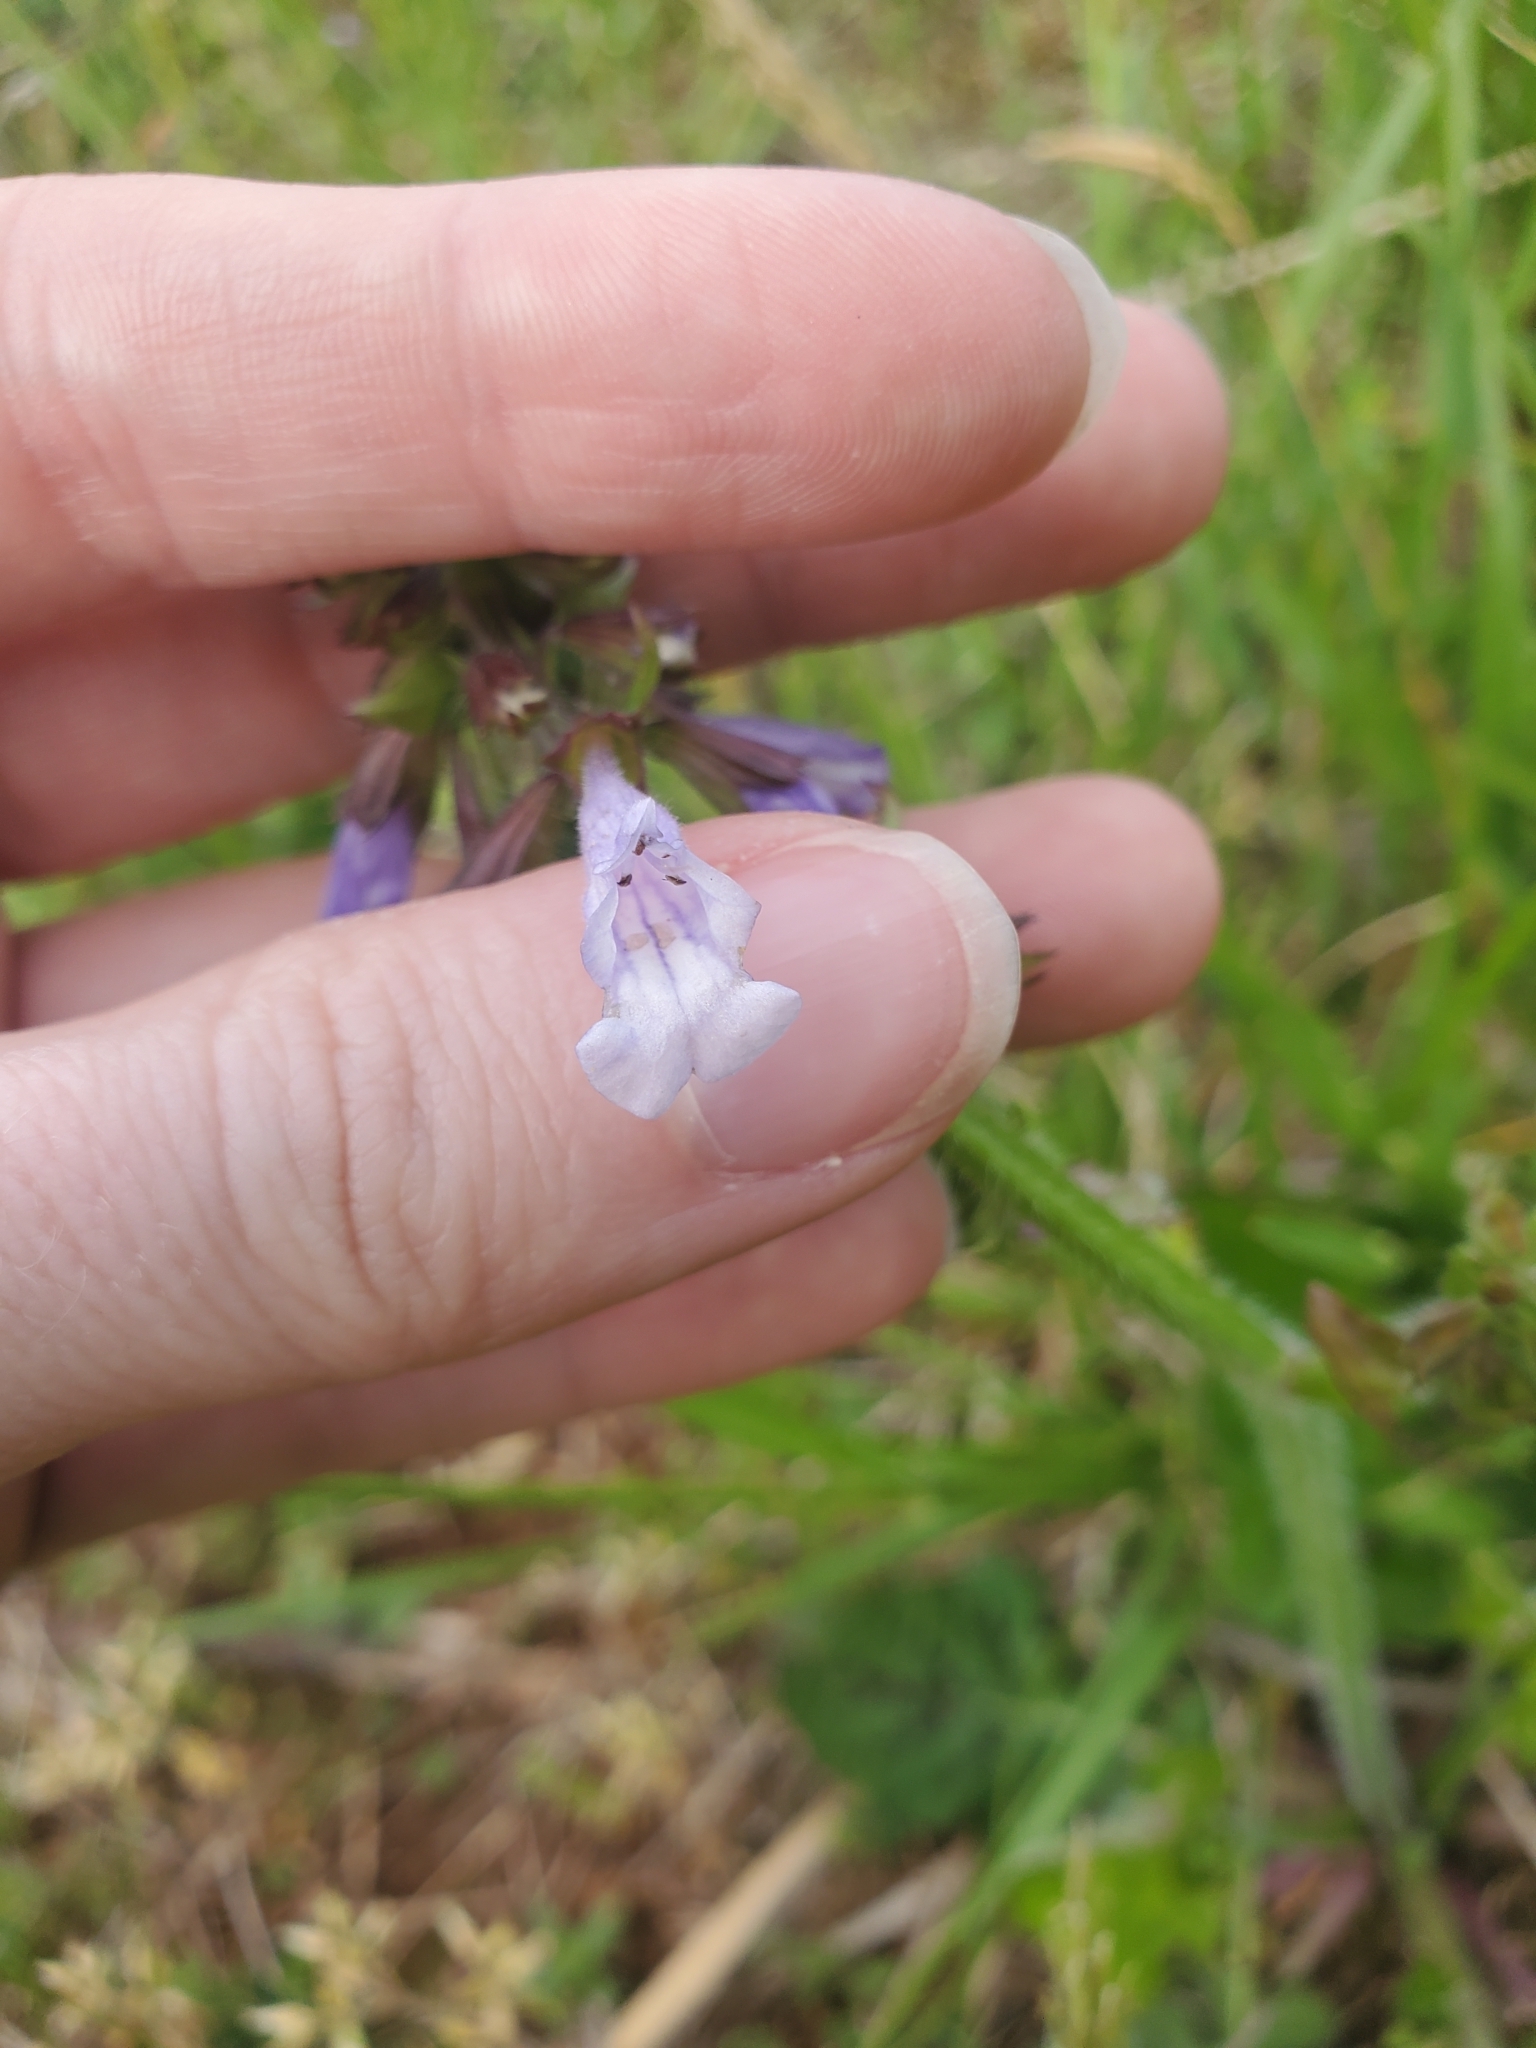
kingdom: Plantae
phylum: Tracheophyta
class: Magnoliopsida
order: Lamiales
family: Lamiaceae
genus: Salvia
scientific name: Salvia lyrata
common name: Cancerweed
